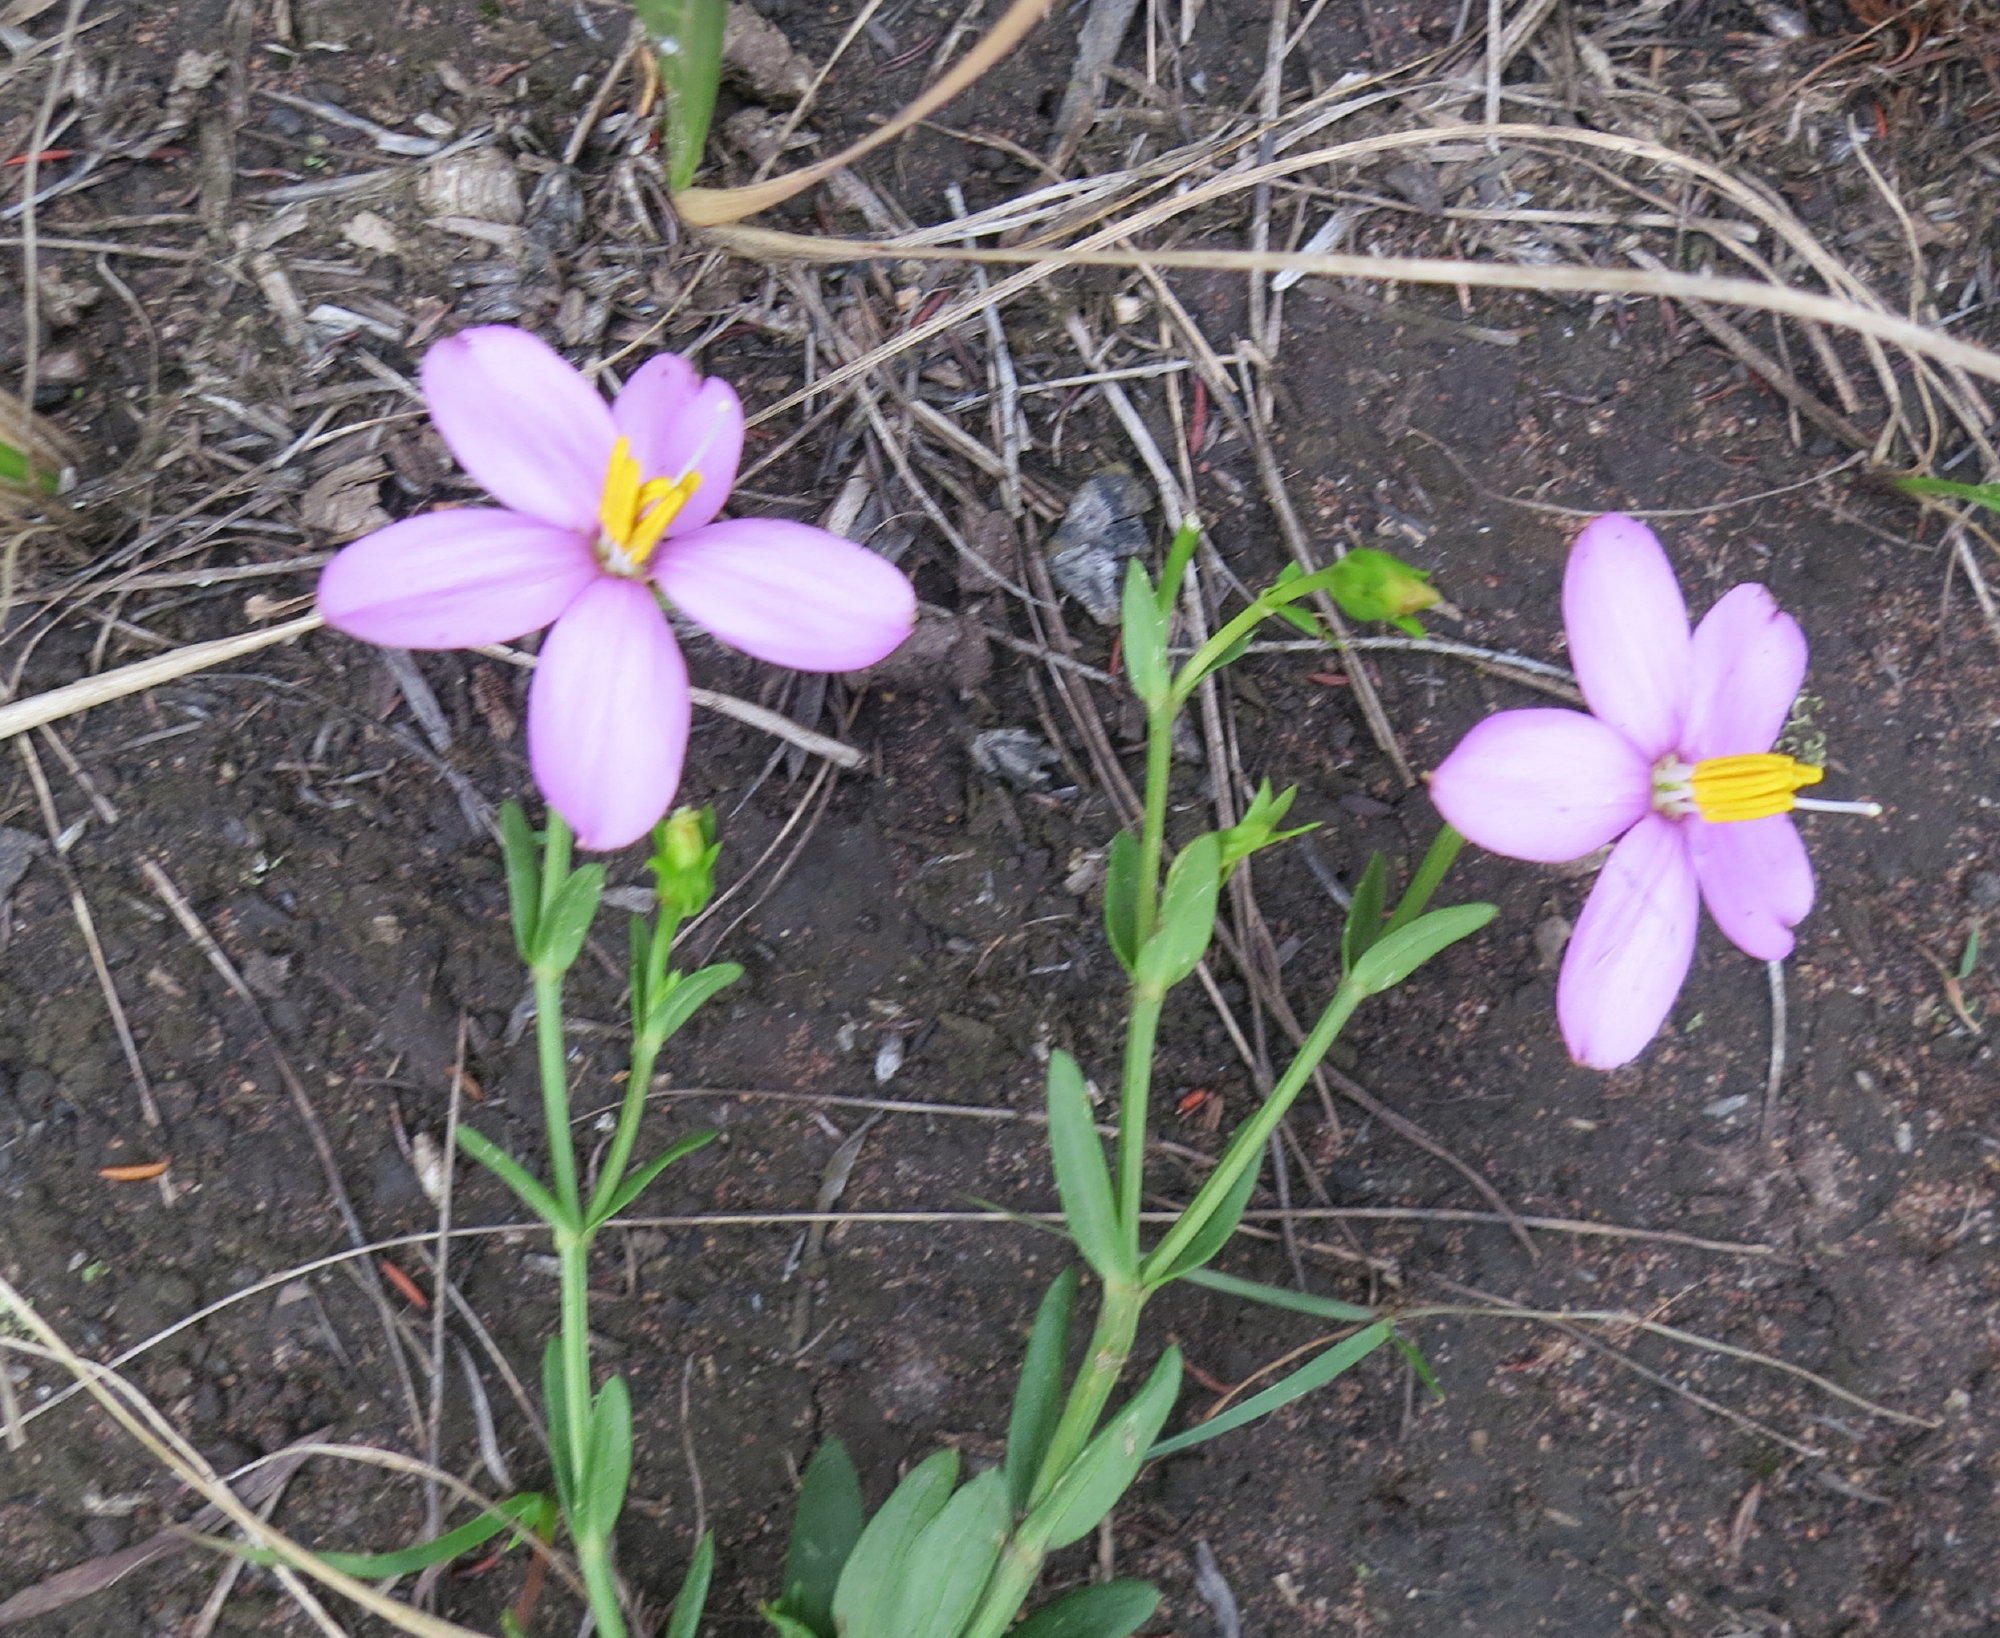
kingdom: Plantae
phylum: Tracheophyta
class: Magnoliopsida
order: Gentianales
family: Gentianaceae
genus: Chironia
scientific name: Chironia tetragona
